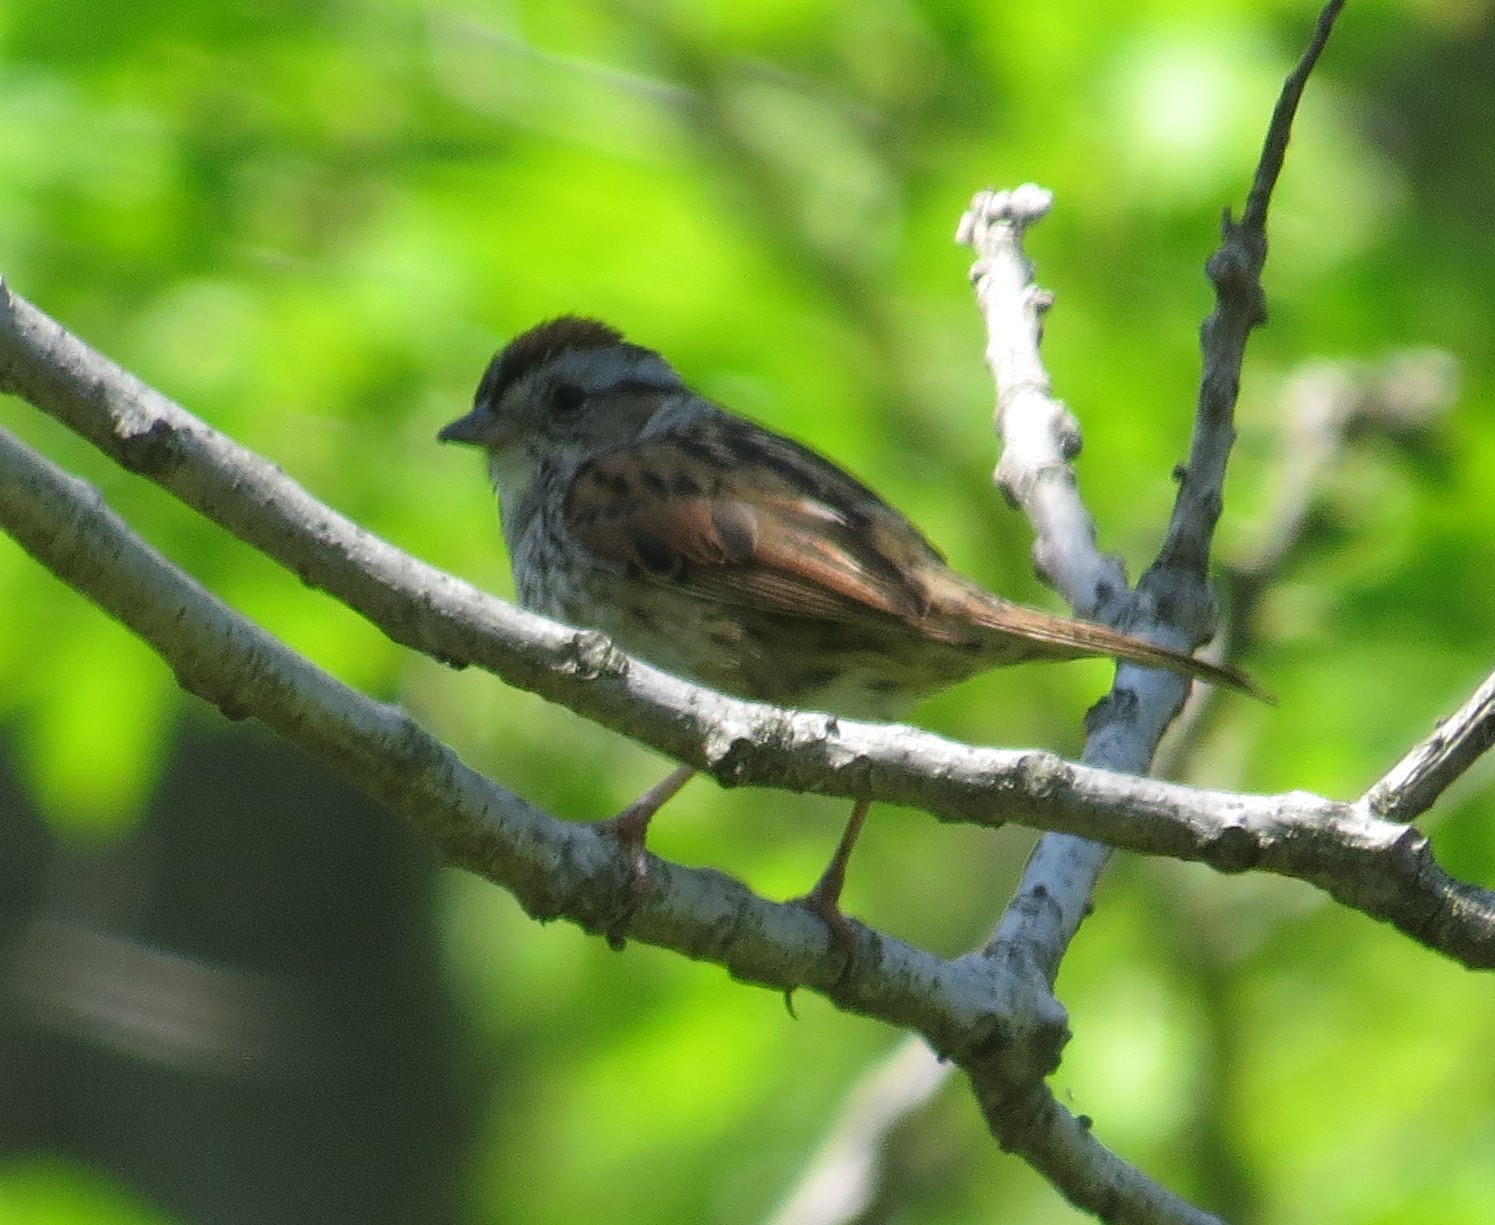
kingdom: Animalia
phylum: Chordata
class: Aves
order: Passeriformes
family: Passerellidae
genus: Melospiza
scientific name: Melospiza georgiana
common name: Swamp sparrow
